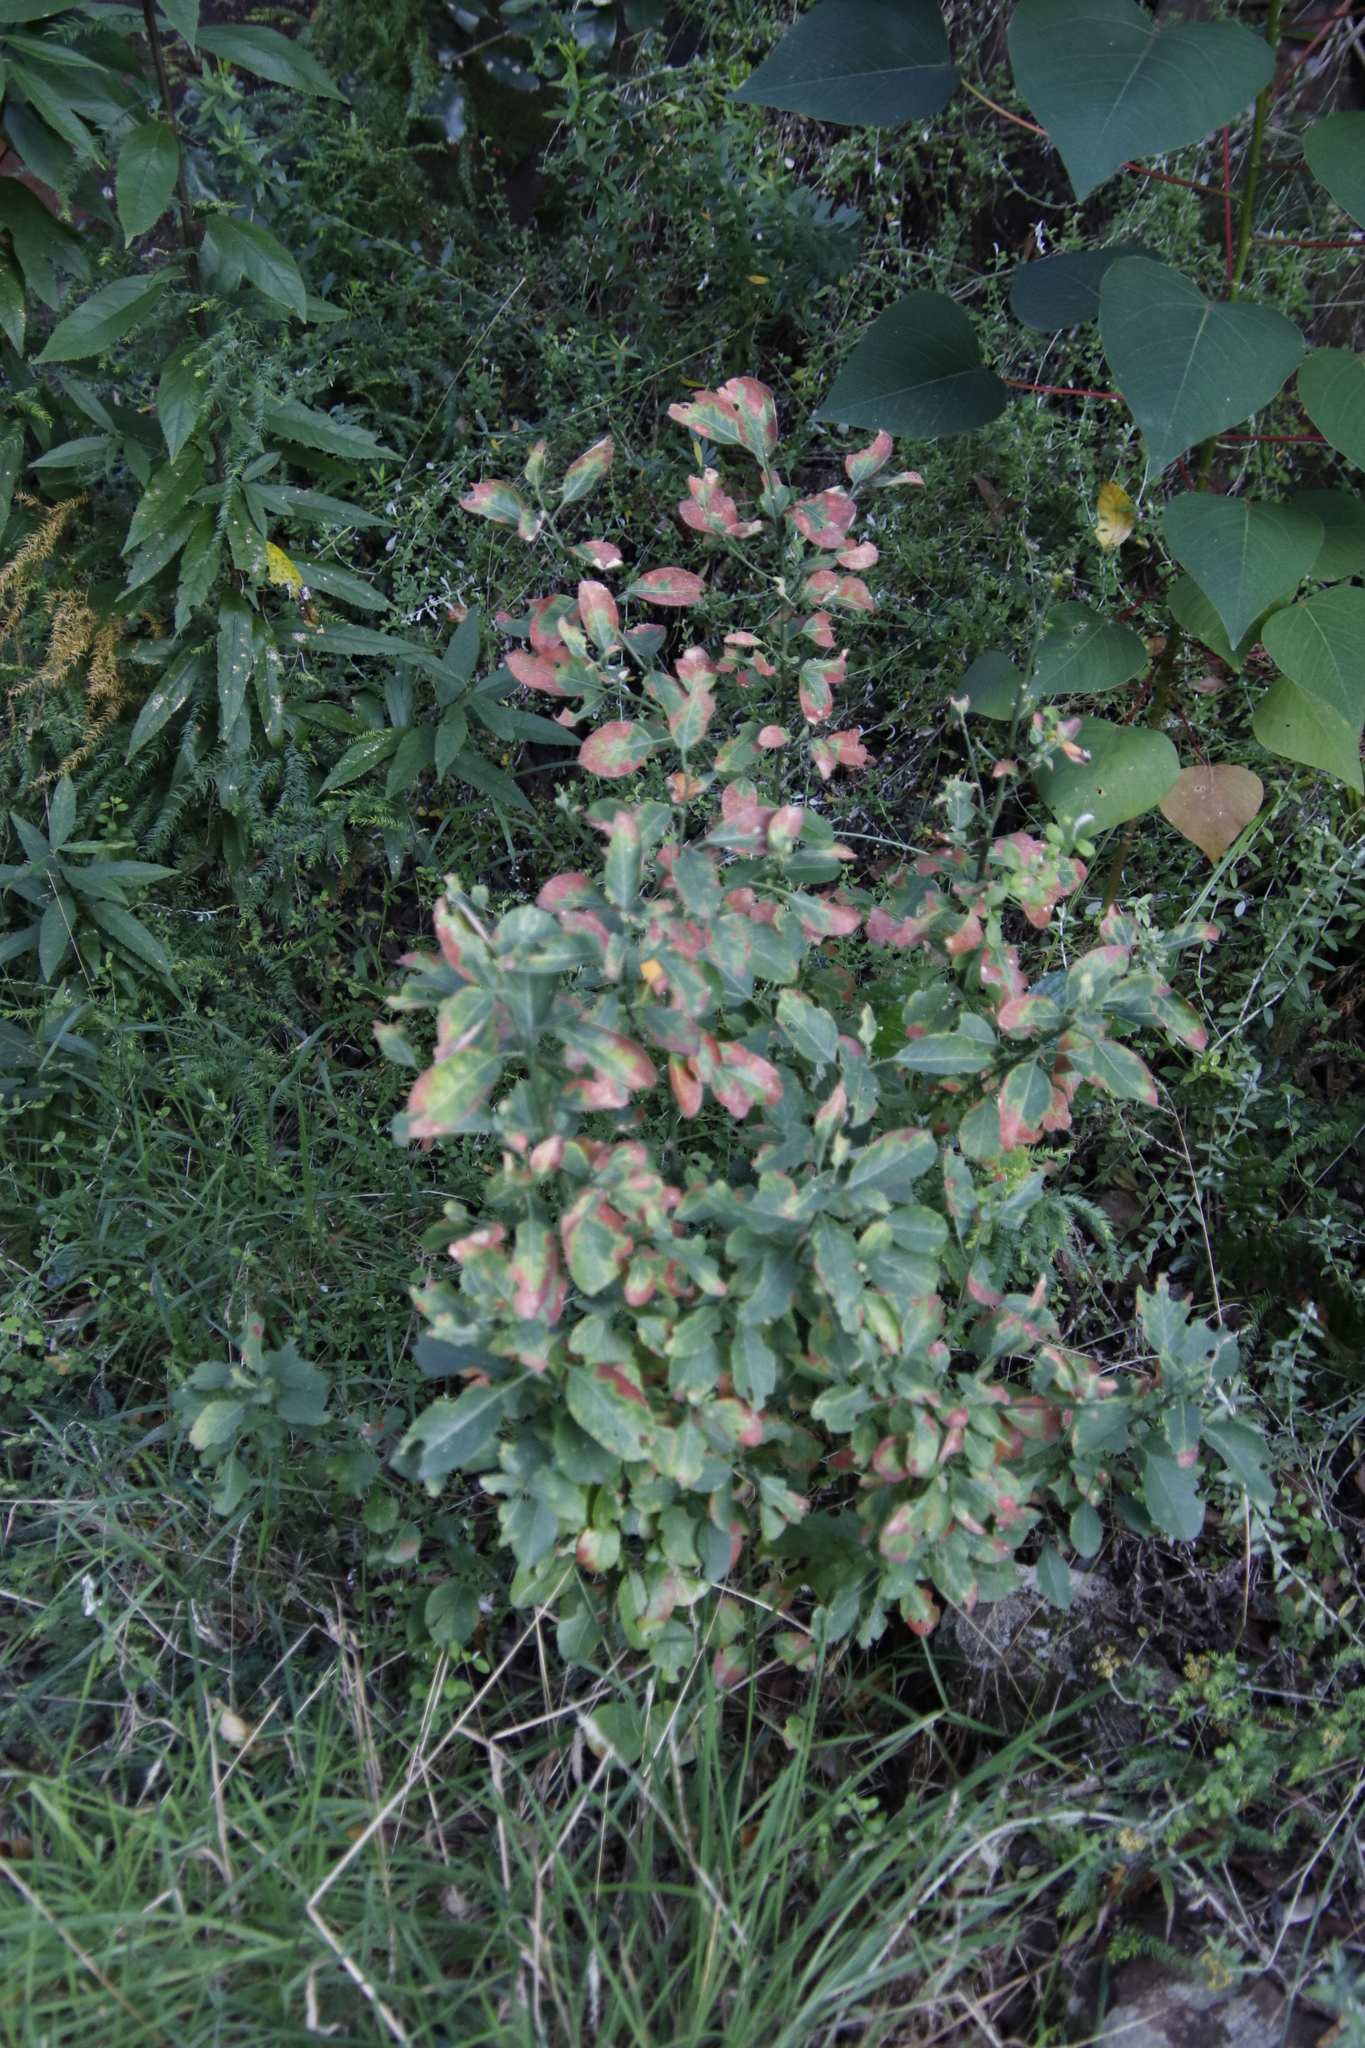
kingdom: Plantae
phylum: Tracheophyta
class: Magnoliopsida
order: Malpighiales
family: Peraceae
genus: Clutia
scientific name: Clutia pulchella
